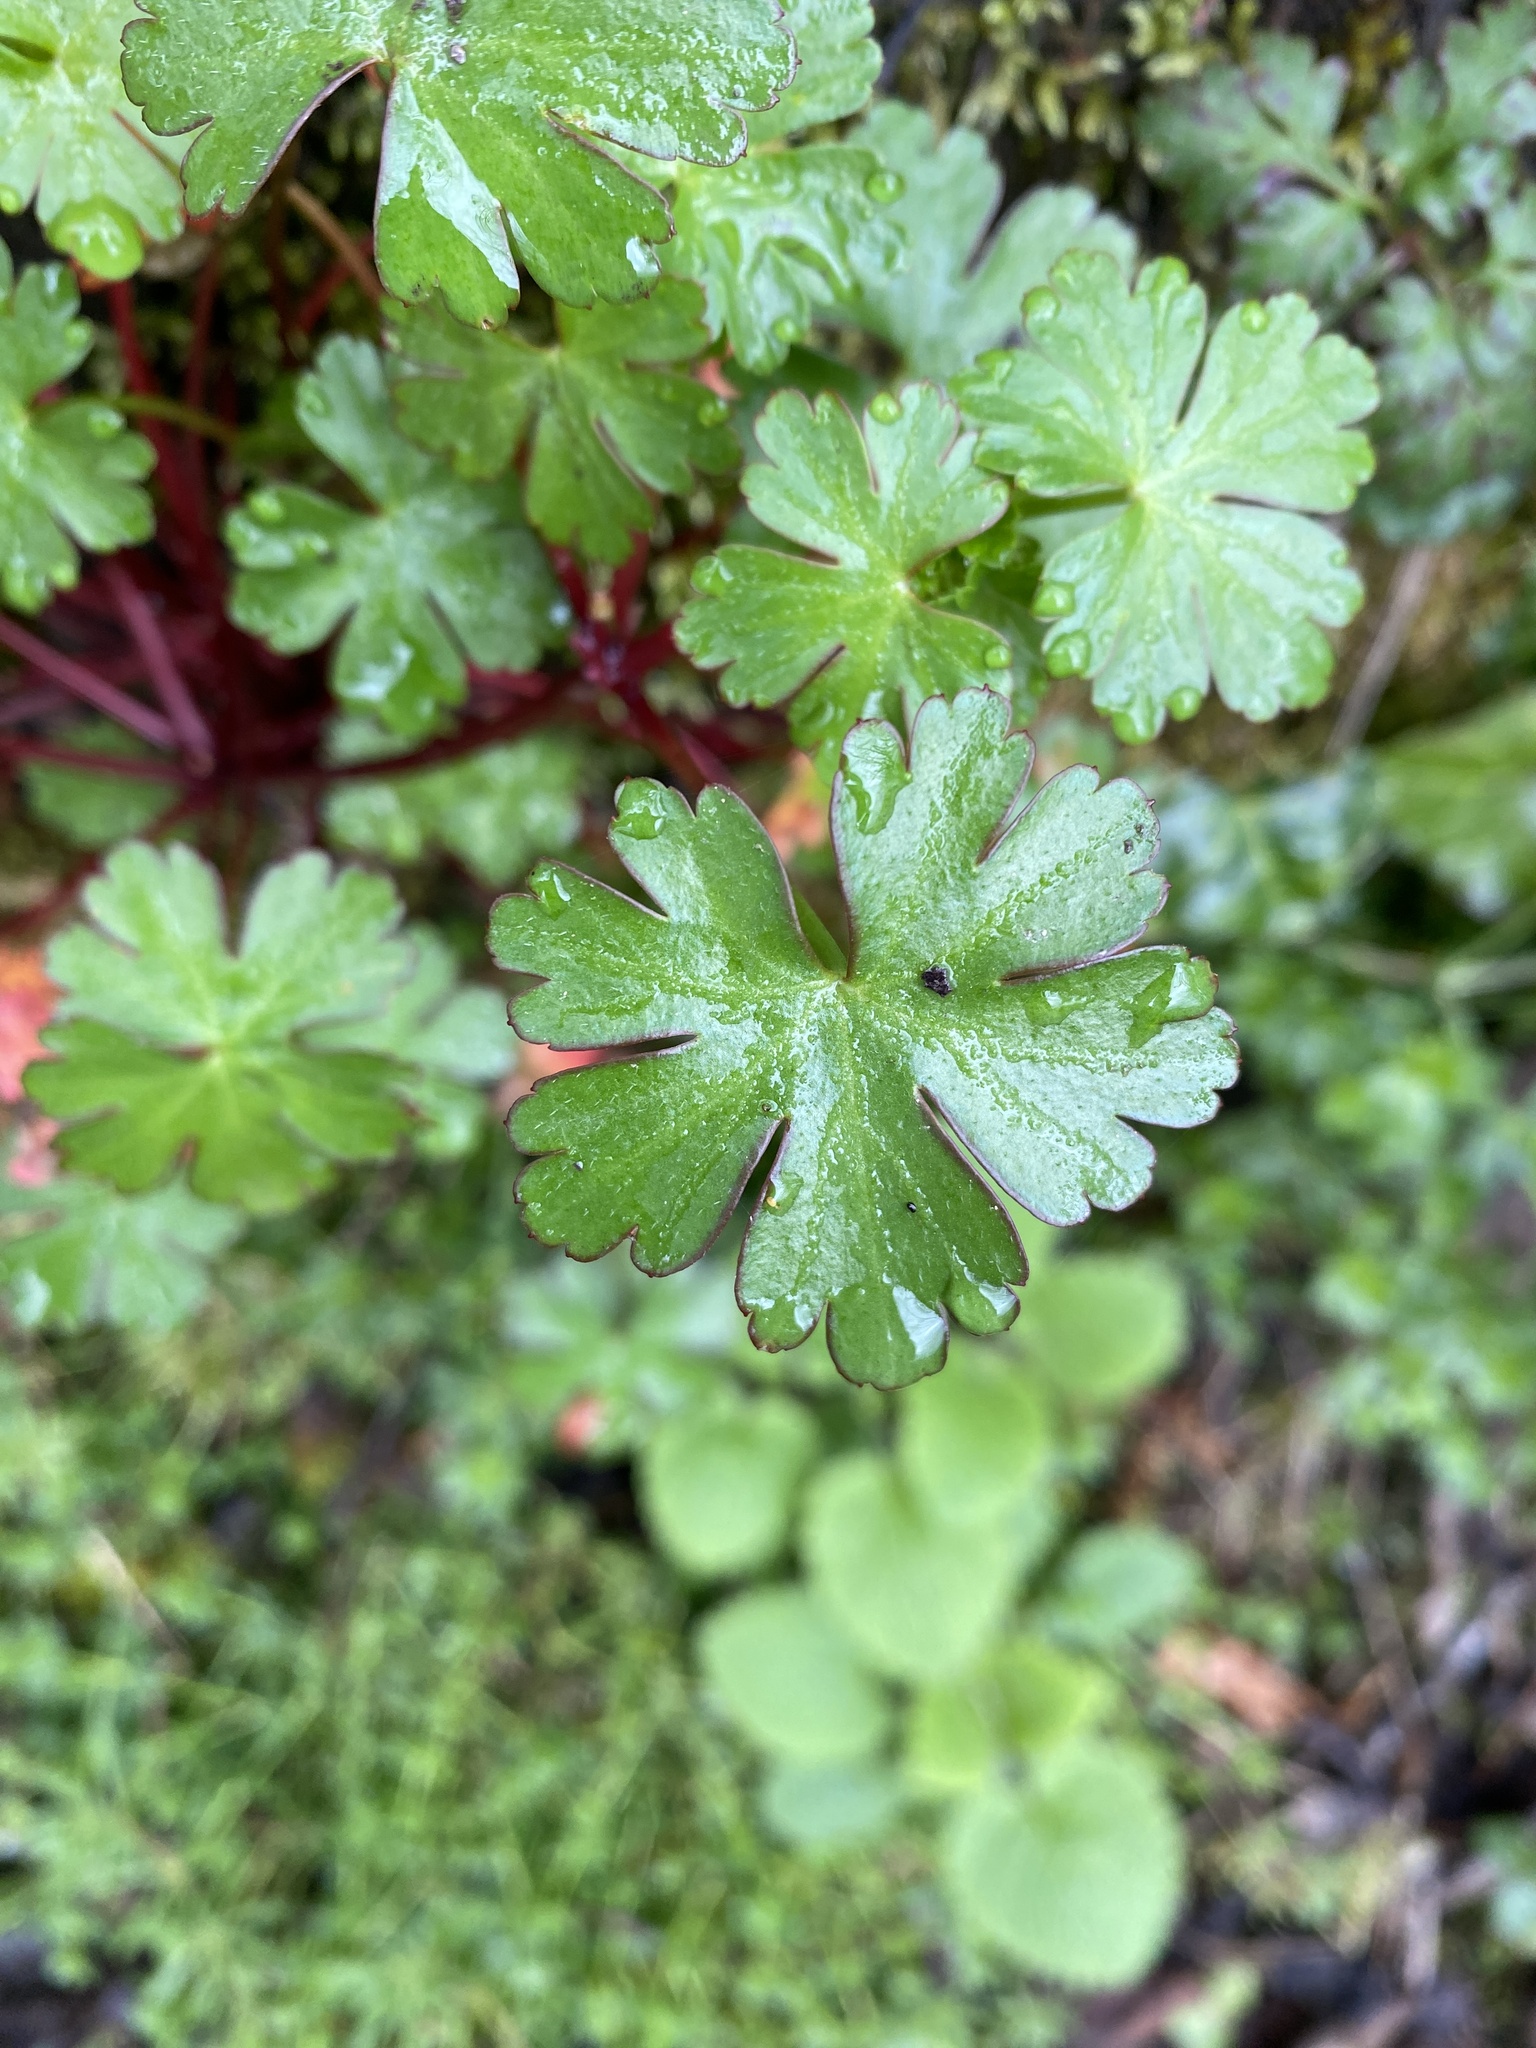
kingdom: Plantae
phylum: Tracheophyta
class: Magnoliopsida
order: Geraniales
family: Geraniaceae
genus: Geranium
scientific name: Geranium lucidum
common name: Shining crane's-bill
